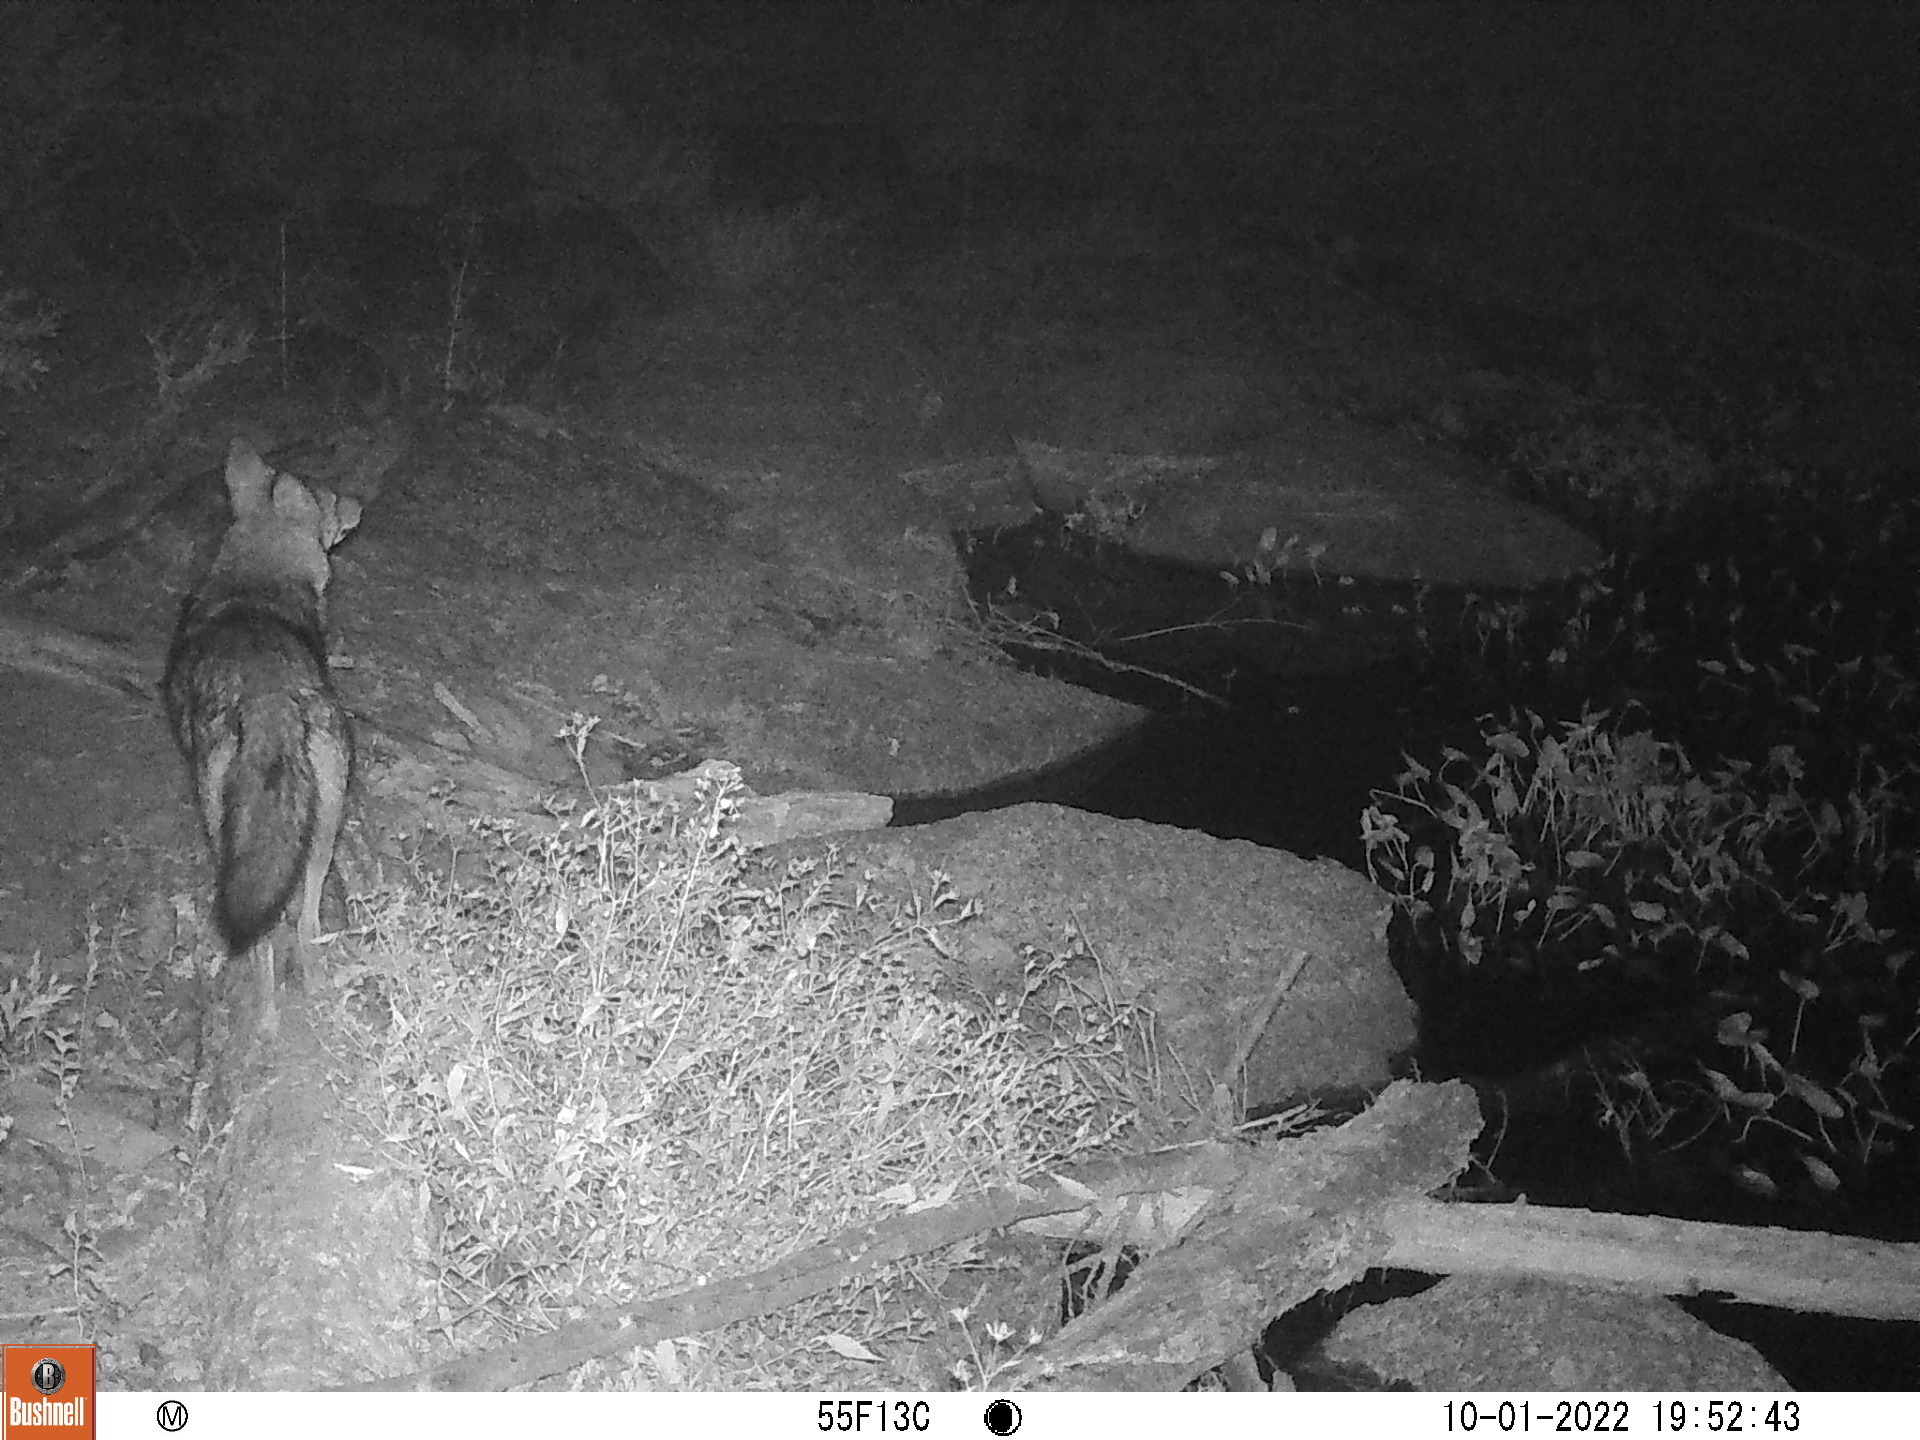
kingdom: Animalia
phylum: Chordata
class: Mammalia
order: Carnivora
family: Canidae
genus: Canis
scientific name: Canis latrans
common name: Coyote
